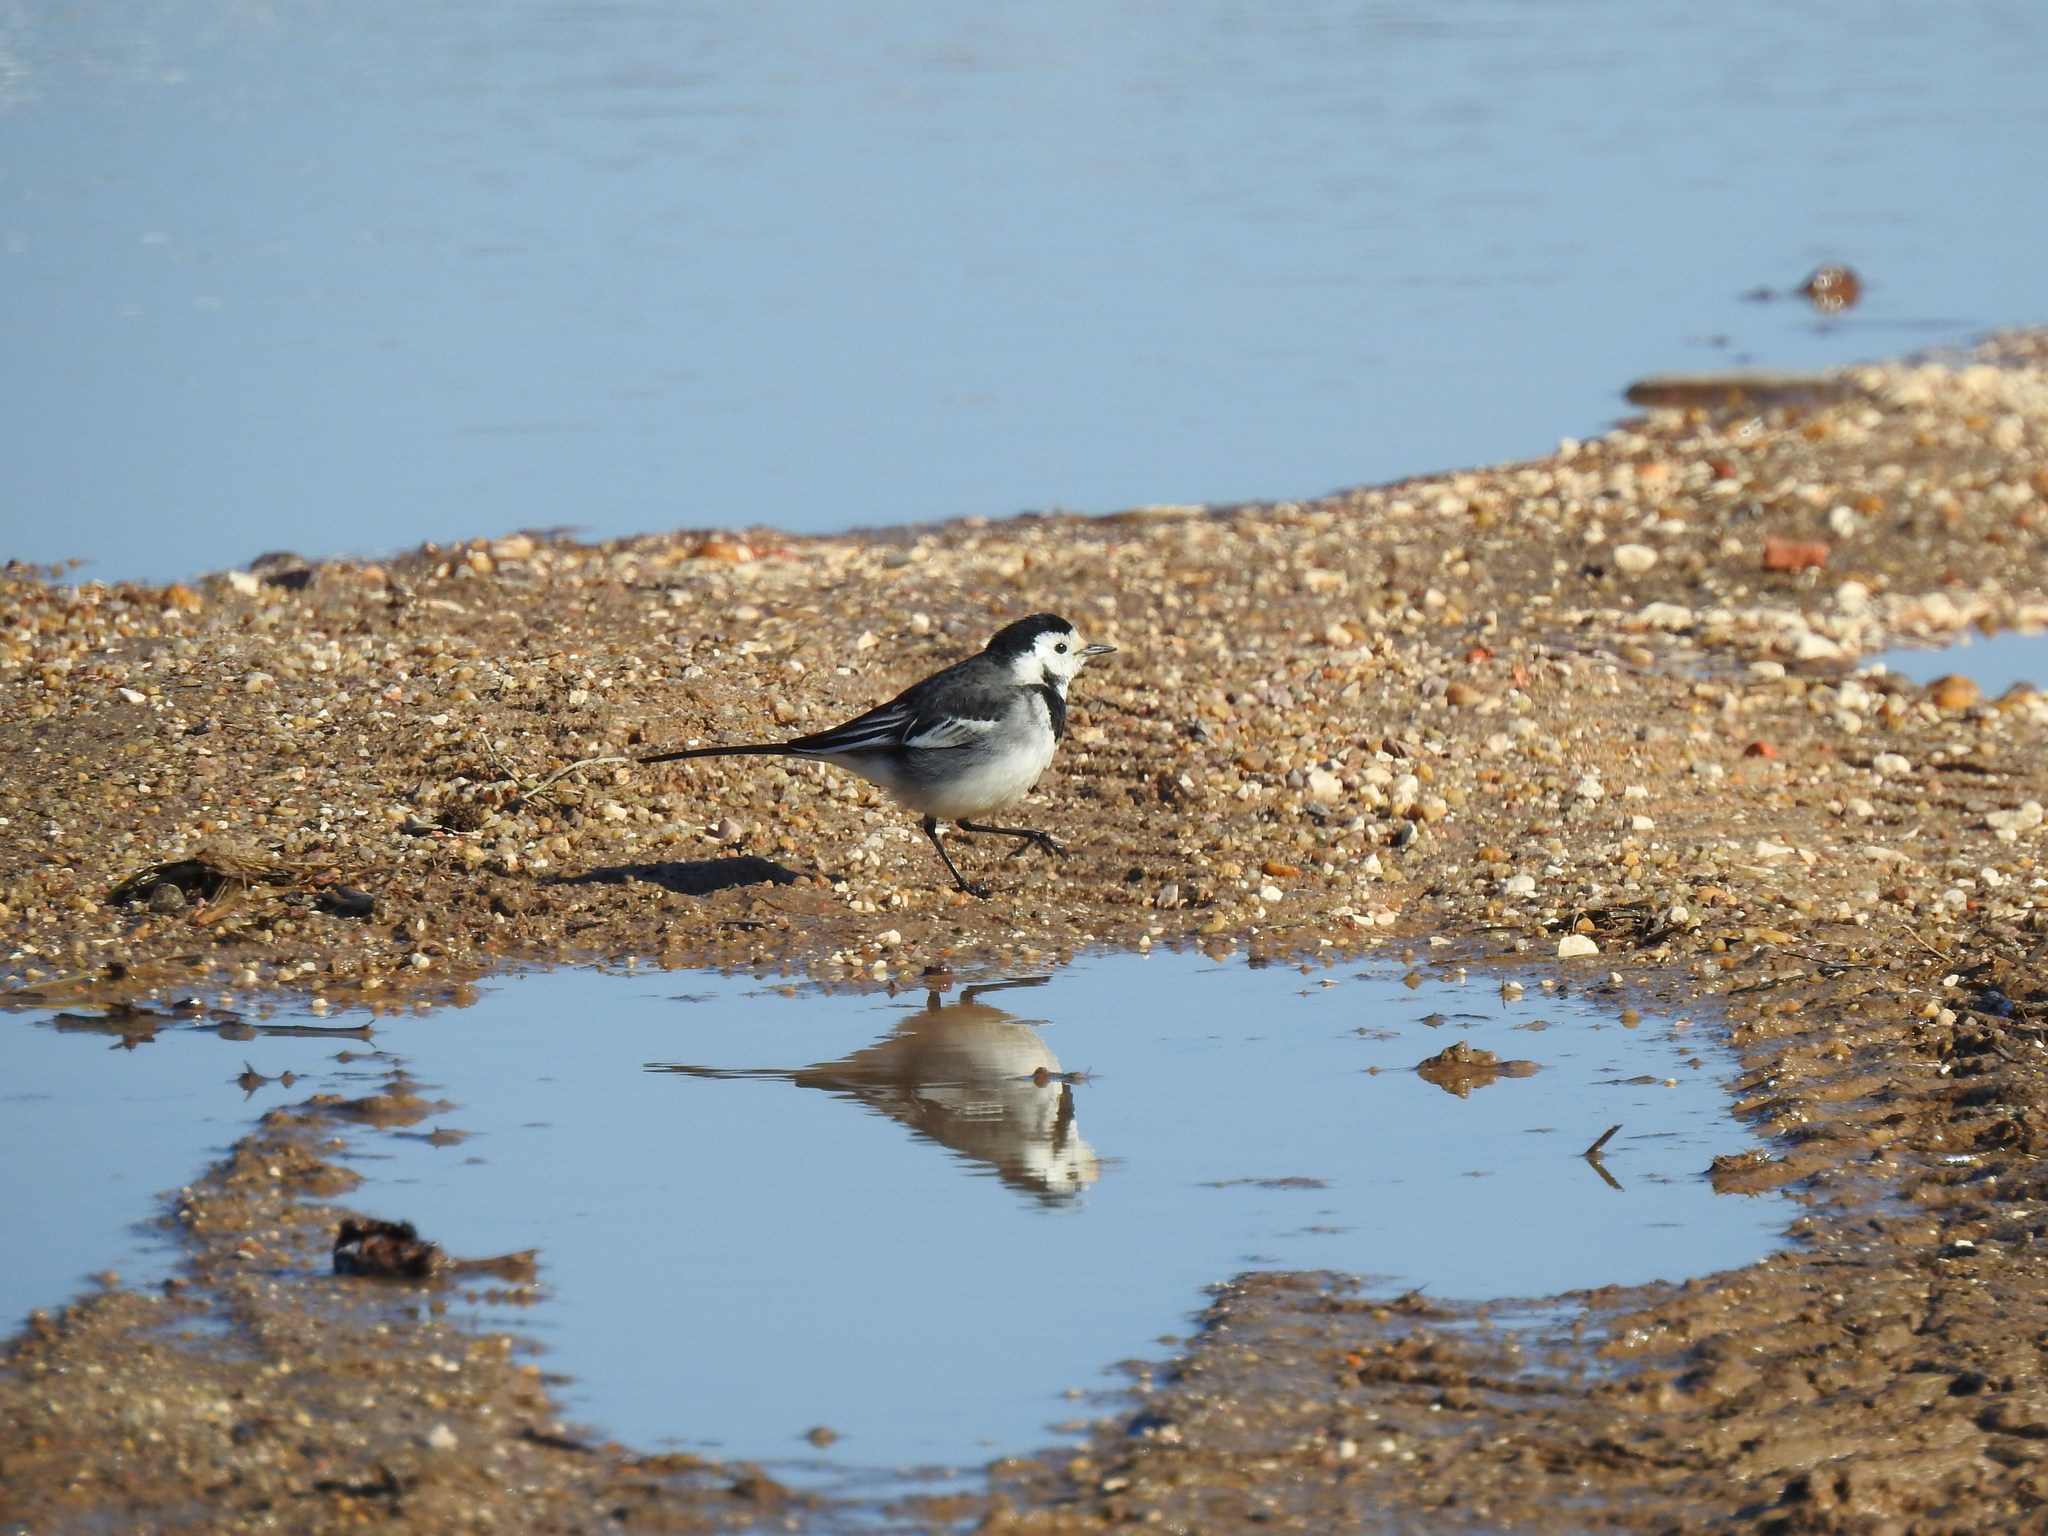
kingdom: Animalia
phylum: Chordata
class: Aves
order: Passeriformes
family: Motacillidae
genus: Motacilla
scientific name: Motacilla alba
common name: White wagtail
